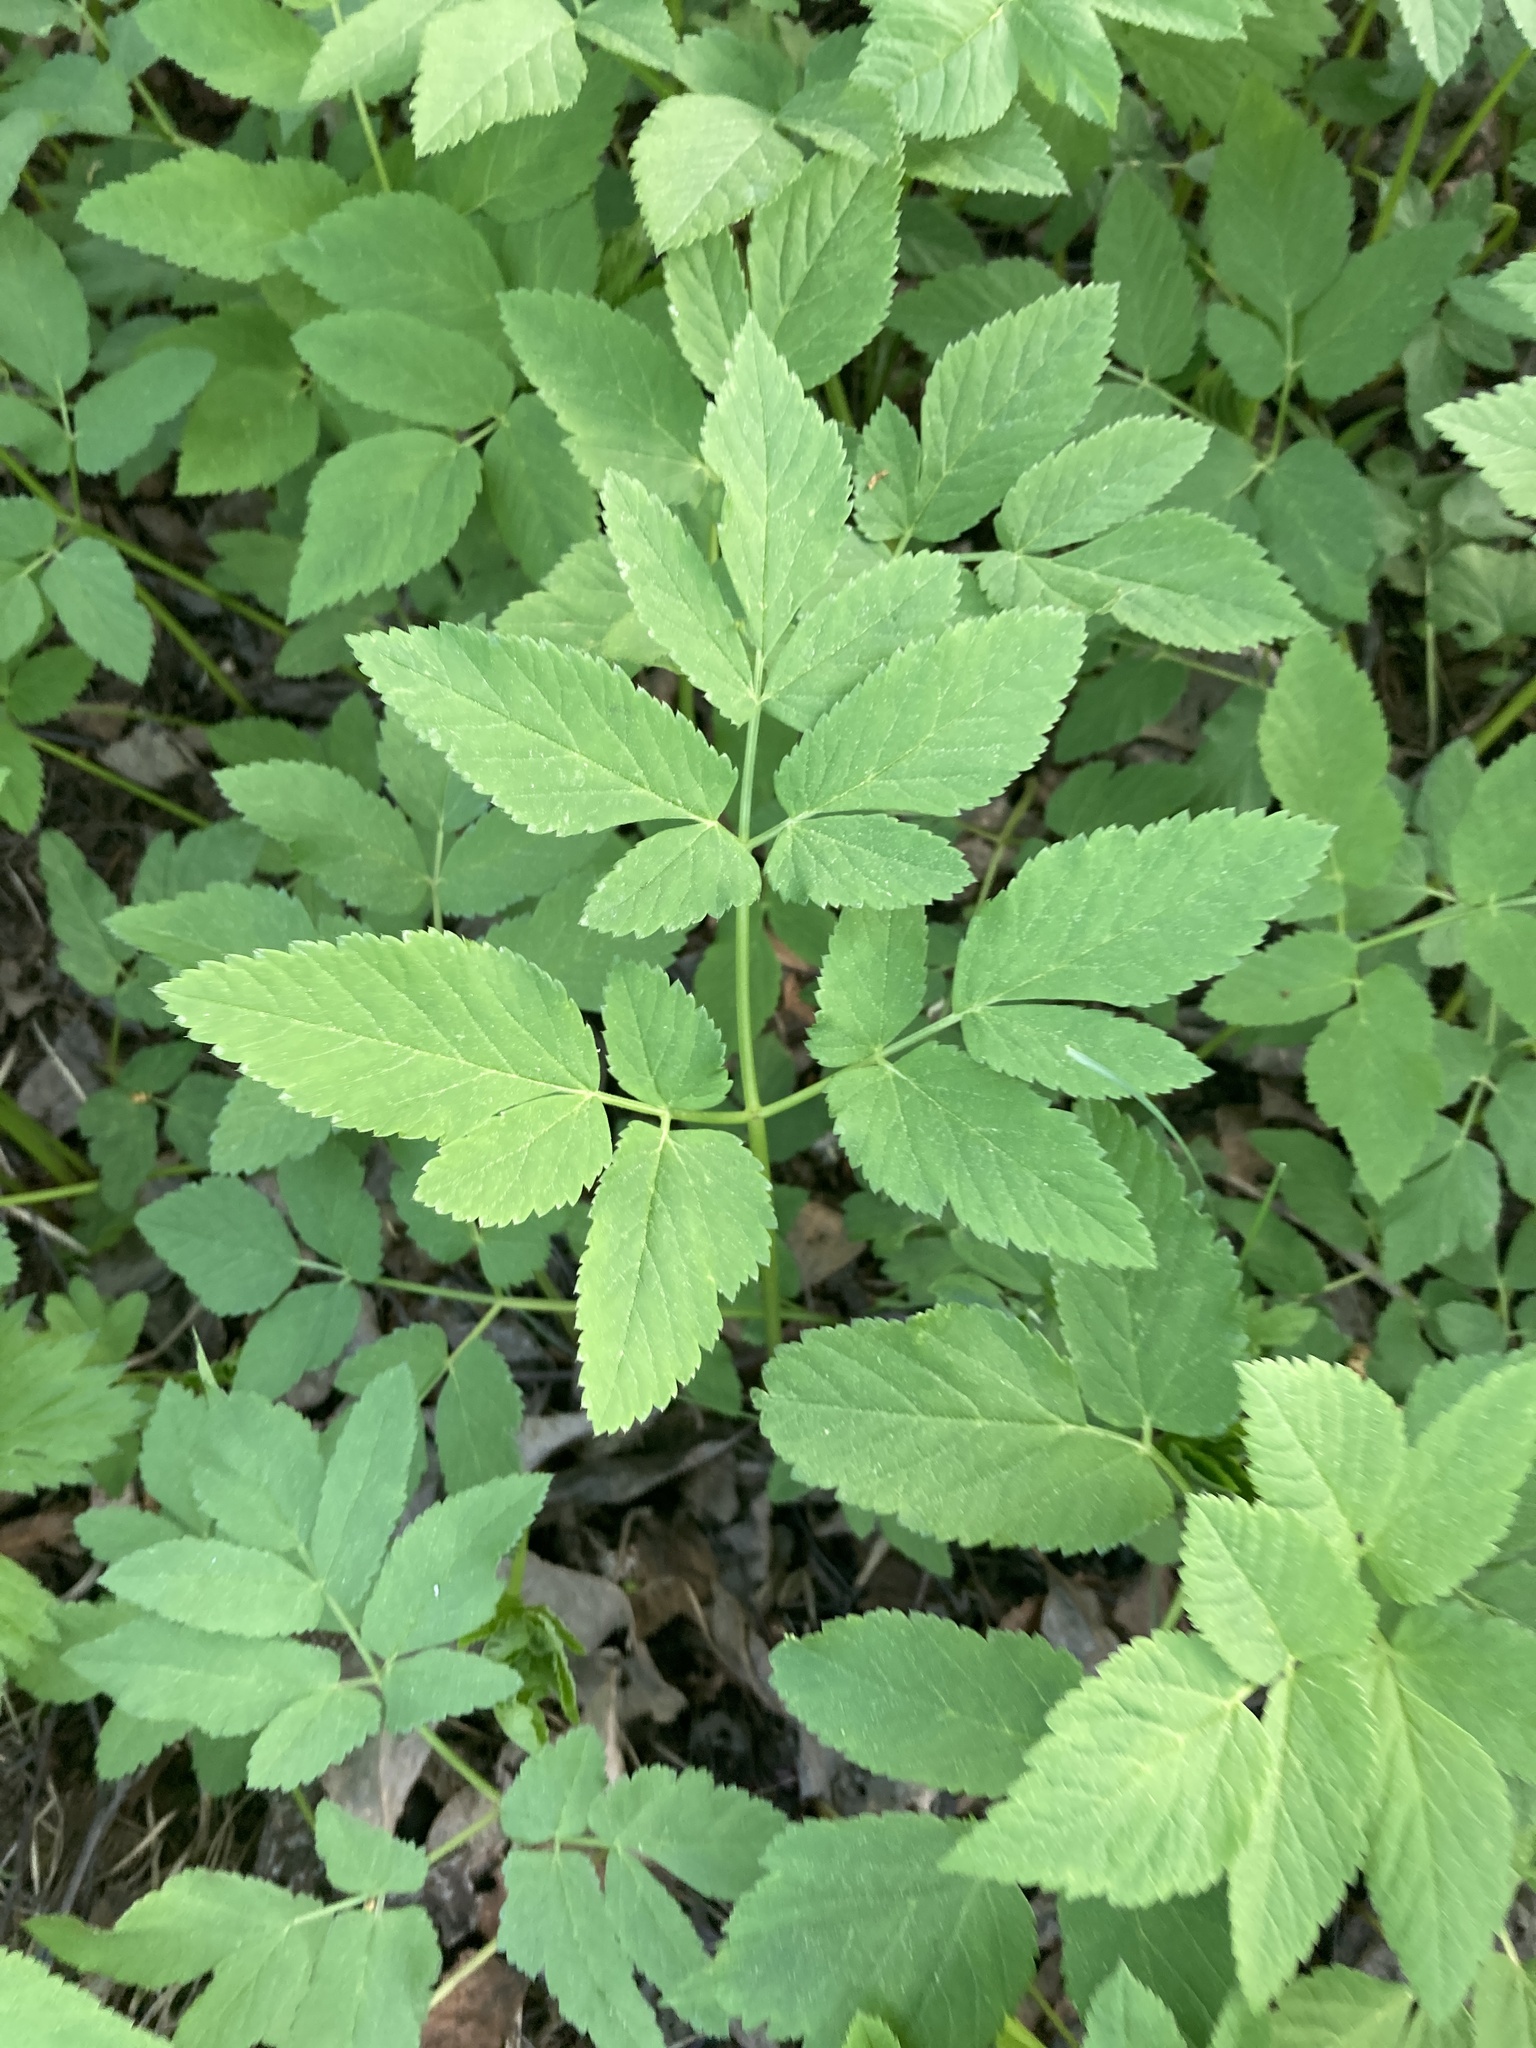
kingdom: Plantae
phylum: Tracheophyta
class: Magnoliopsida
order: Apiales
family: Apiaceae
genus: Aegopodium
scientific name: Aegopodium podagraria
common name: Ground-elder
